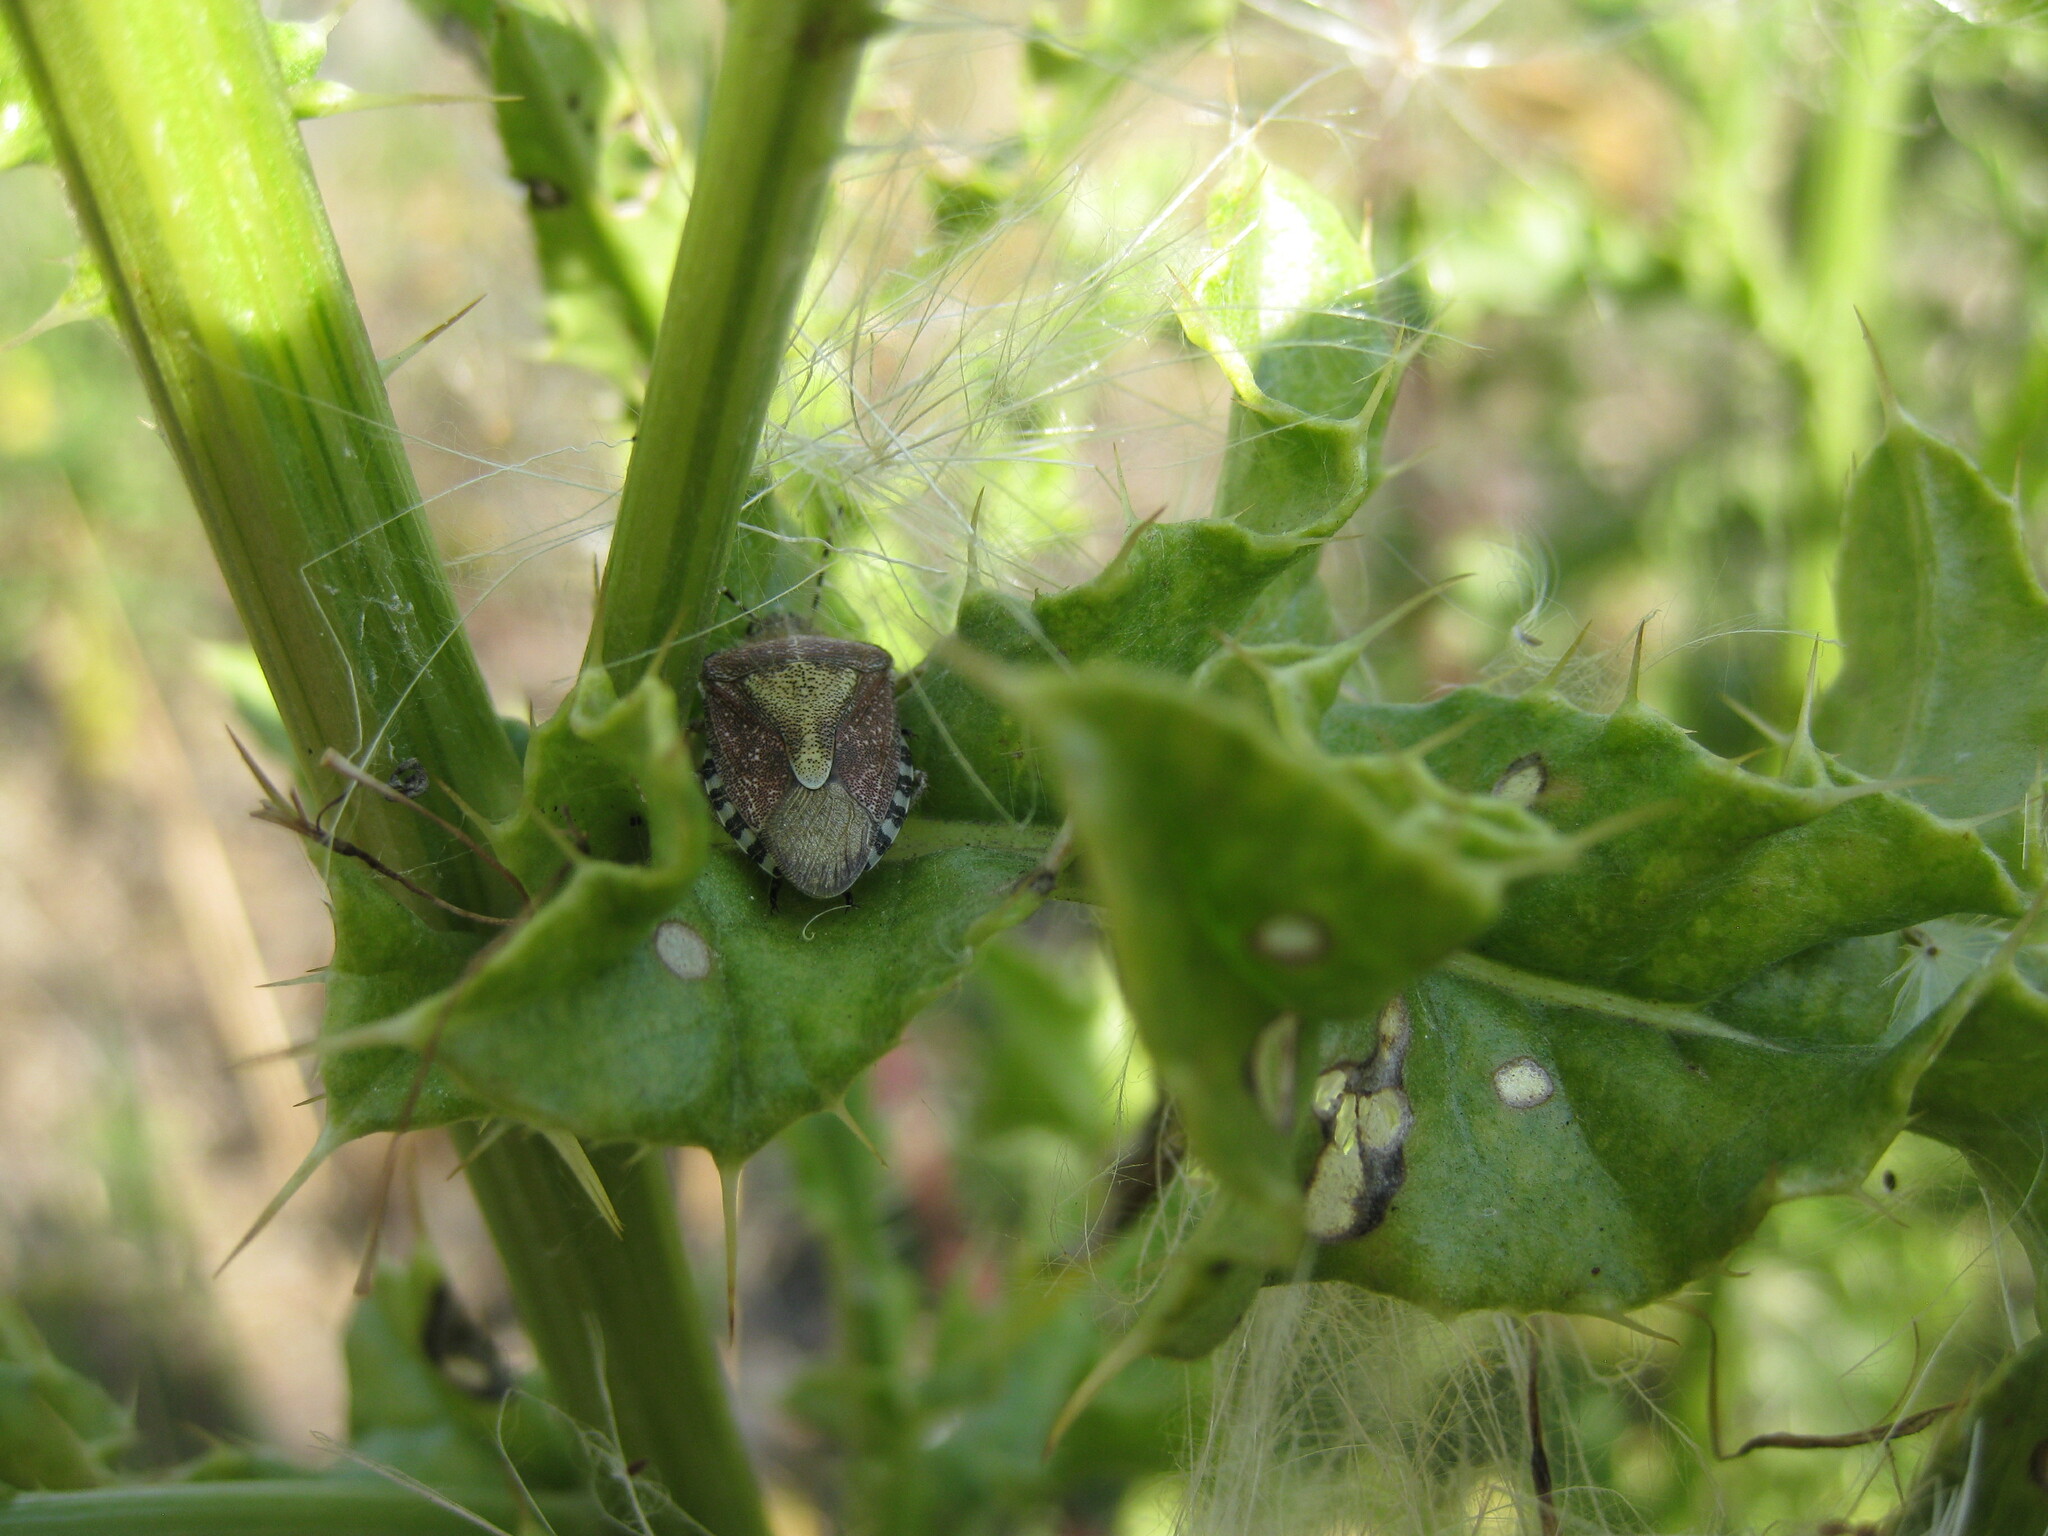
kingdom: Animalia
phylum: Arthropoda
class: Insecta
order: Hemiptera
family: Pentatomidae
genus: Dolycoris
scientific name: Dolycoris baccarum
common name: Sloe bug
